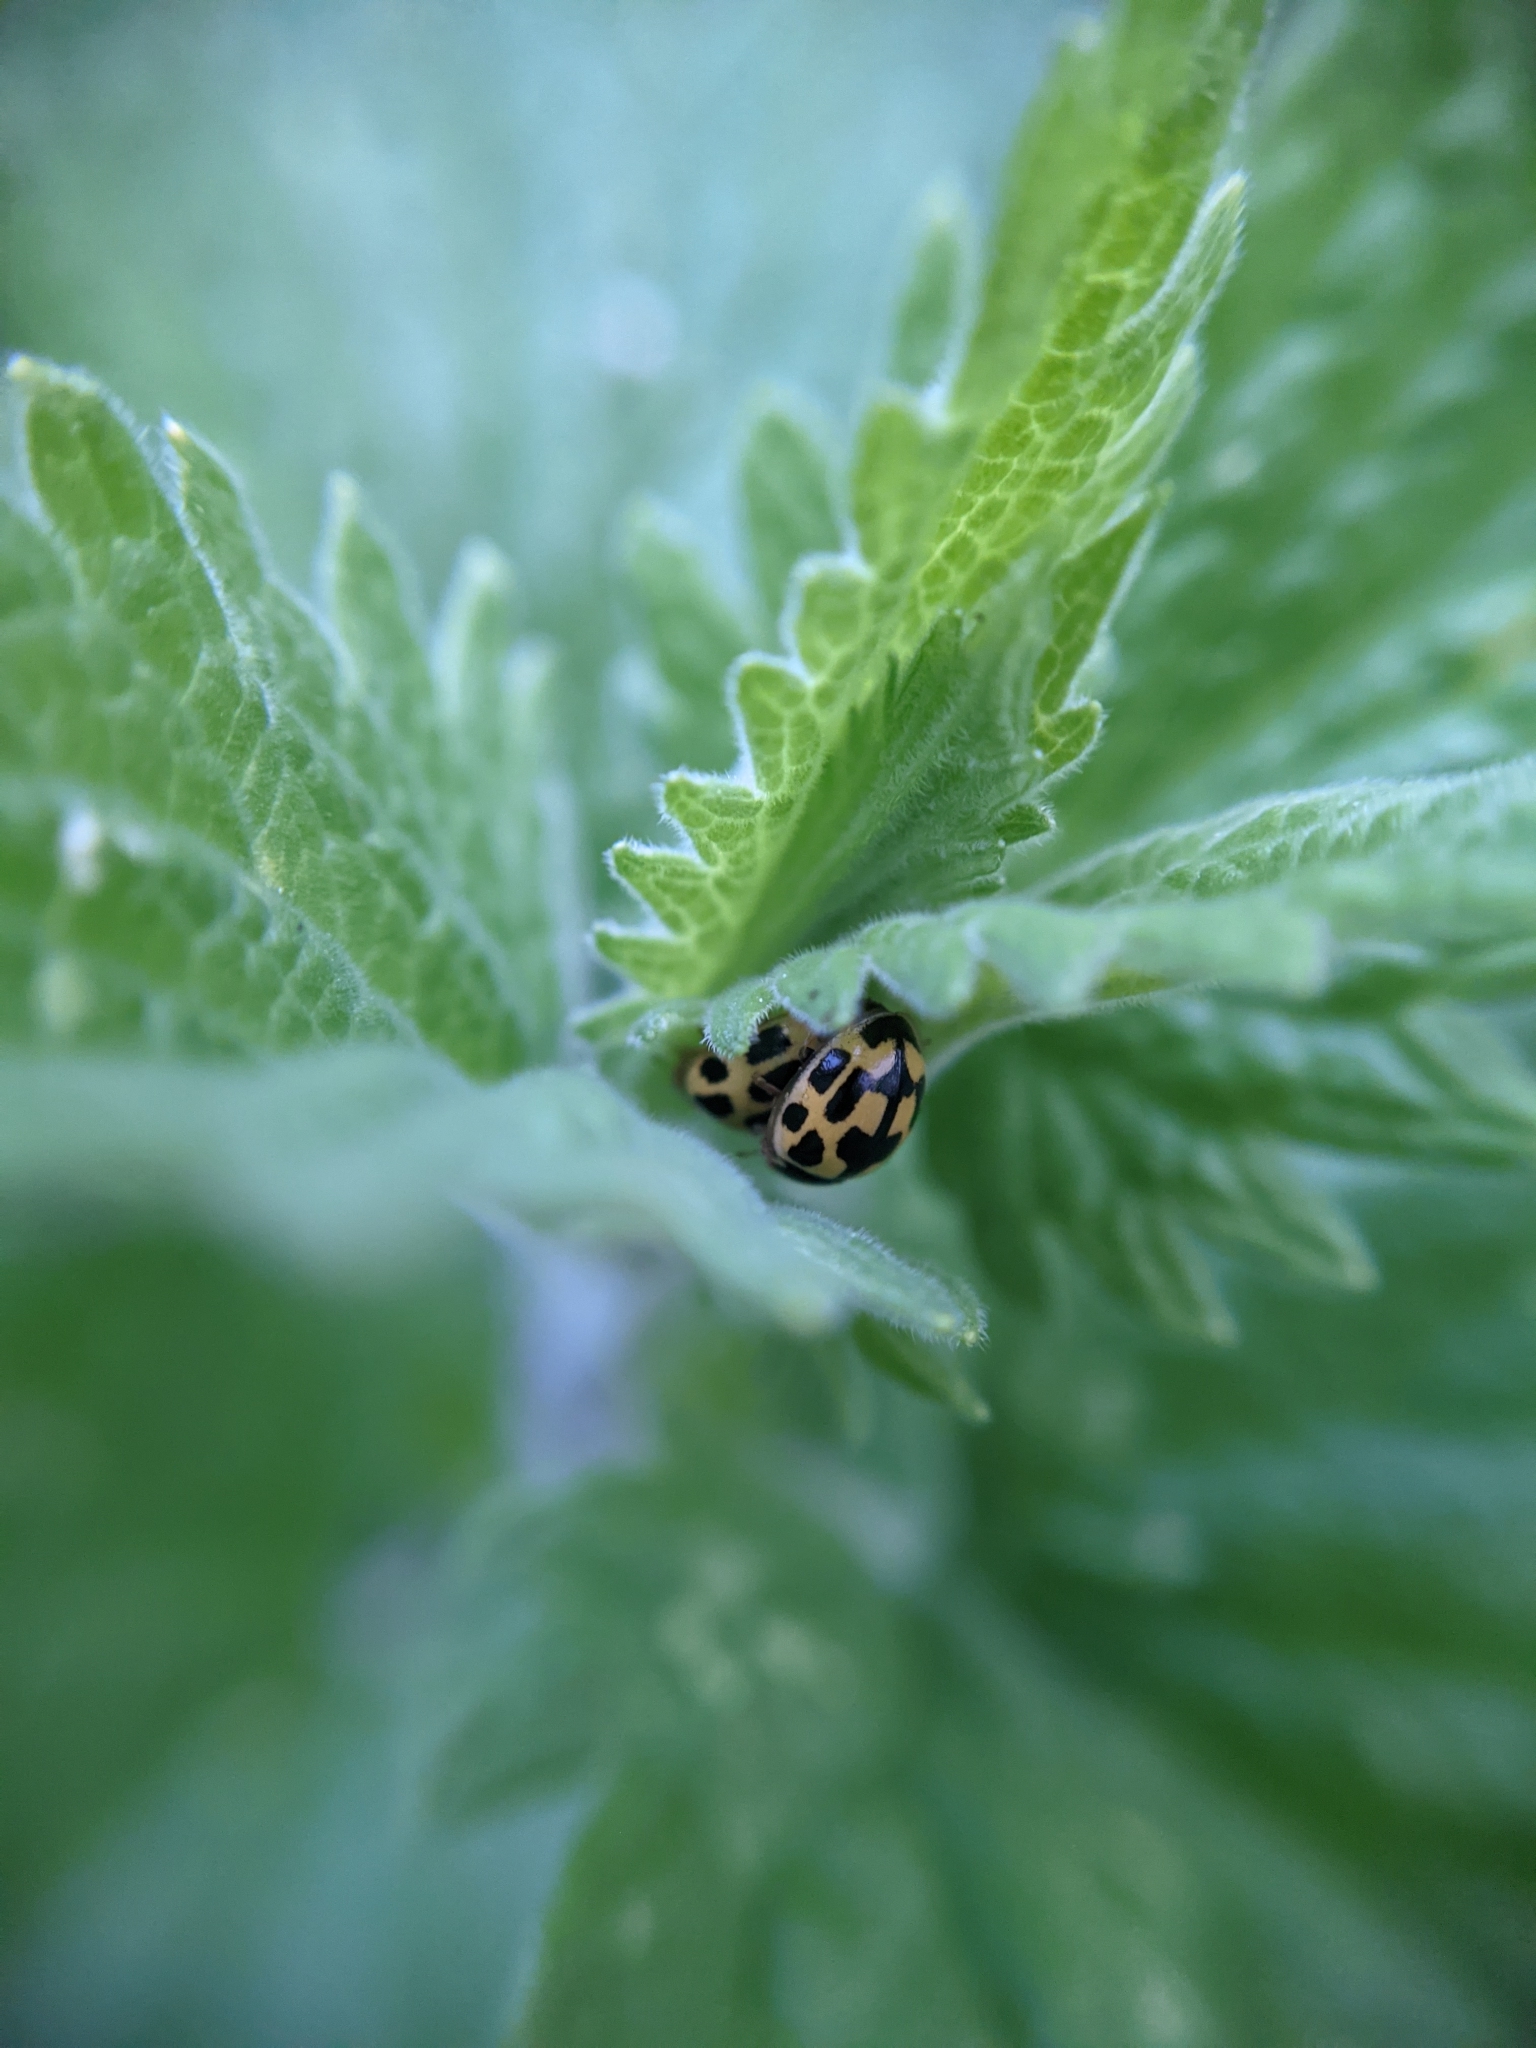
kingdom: Animalia
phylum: Arthropoda
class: Insecta
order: Coleoptera
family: Coccinellidae
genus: Propylaea
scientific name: Propylaea quatuordecimpunctata
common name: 14-spotted ladybird beetle
